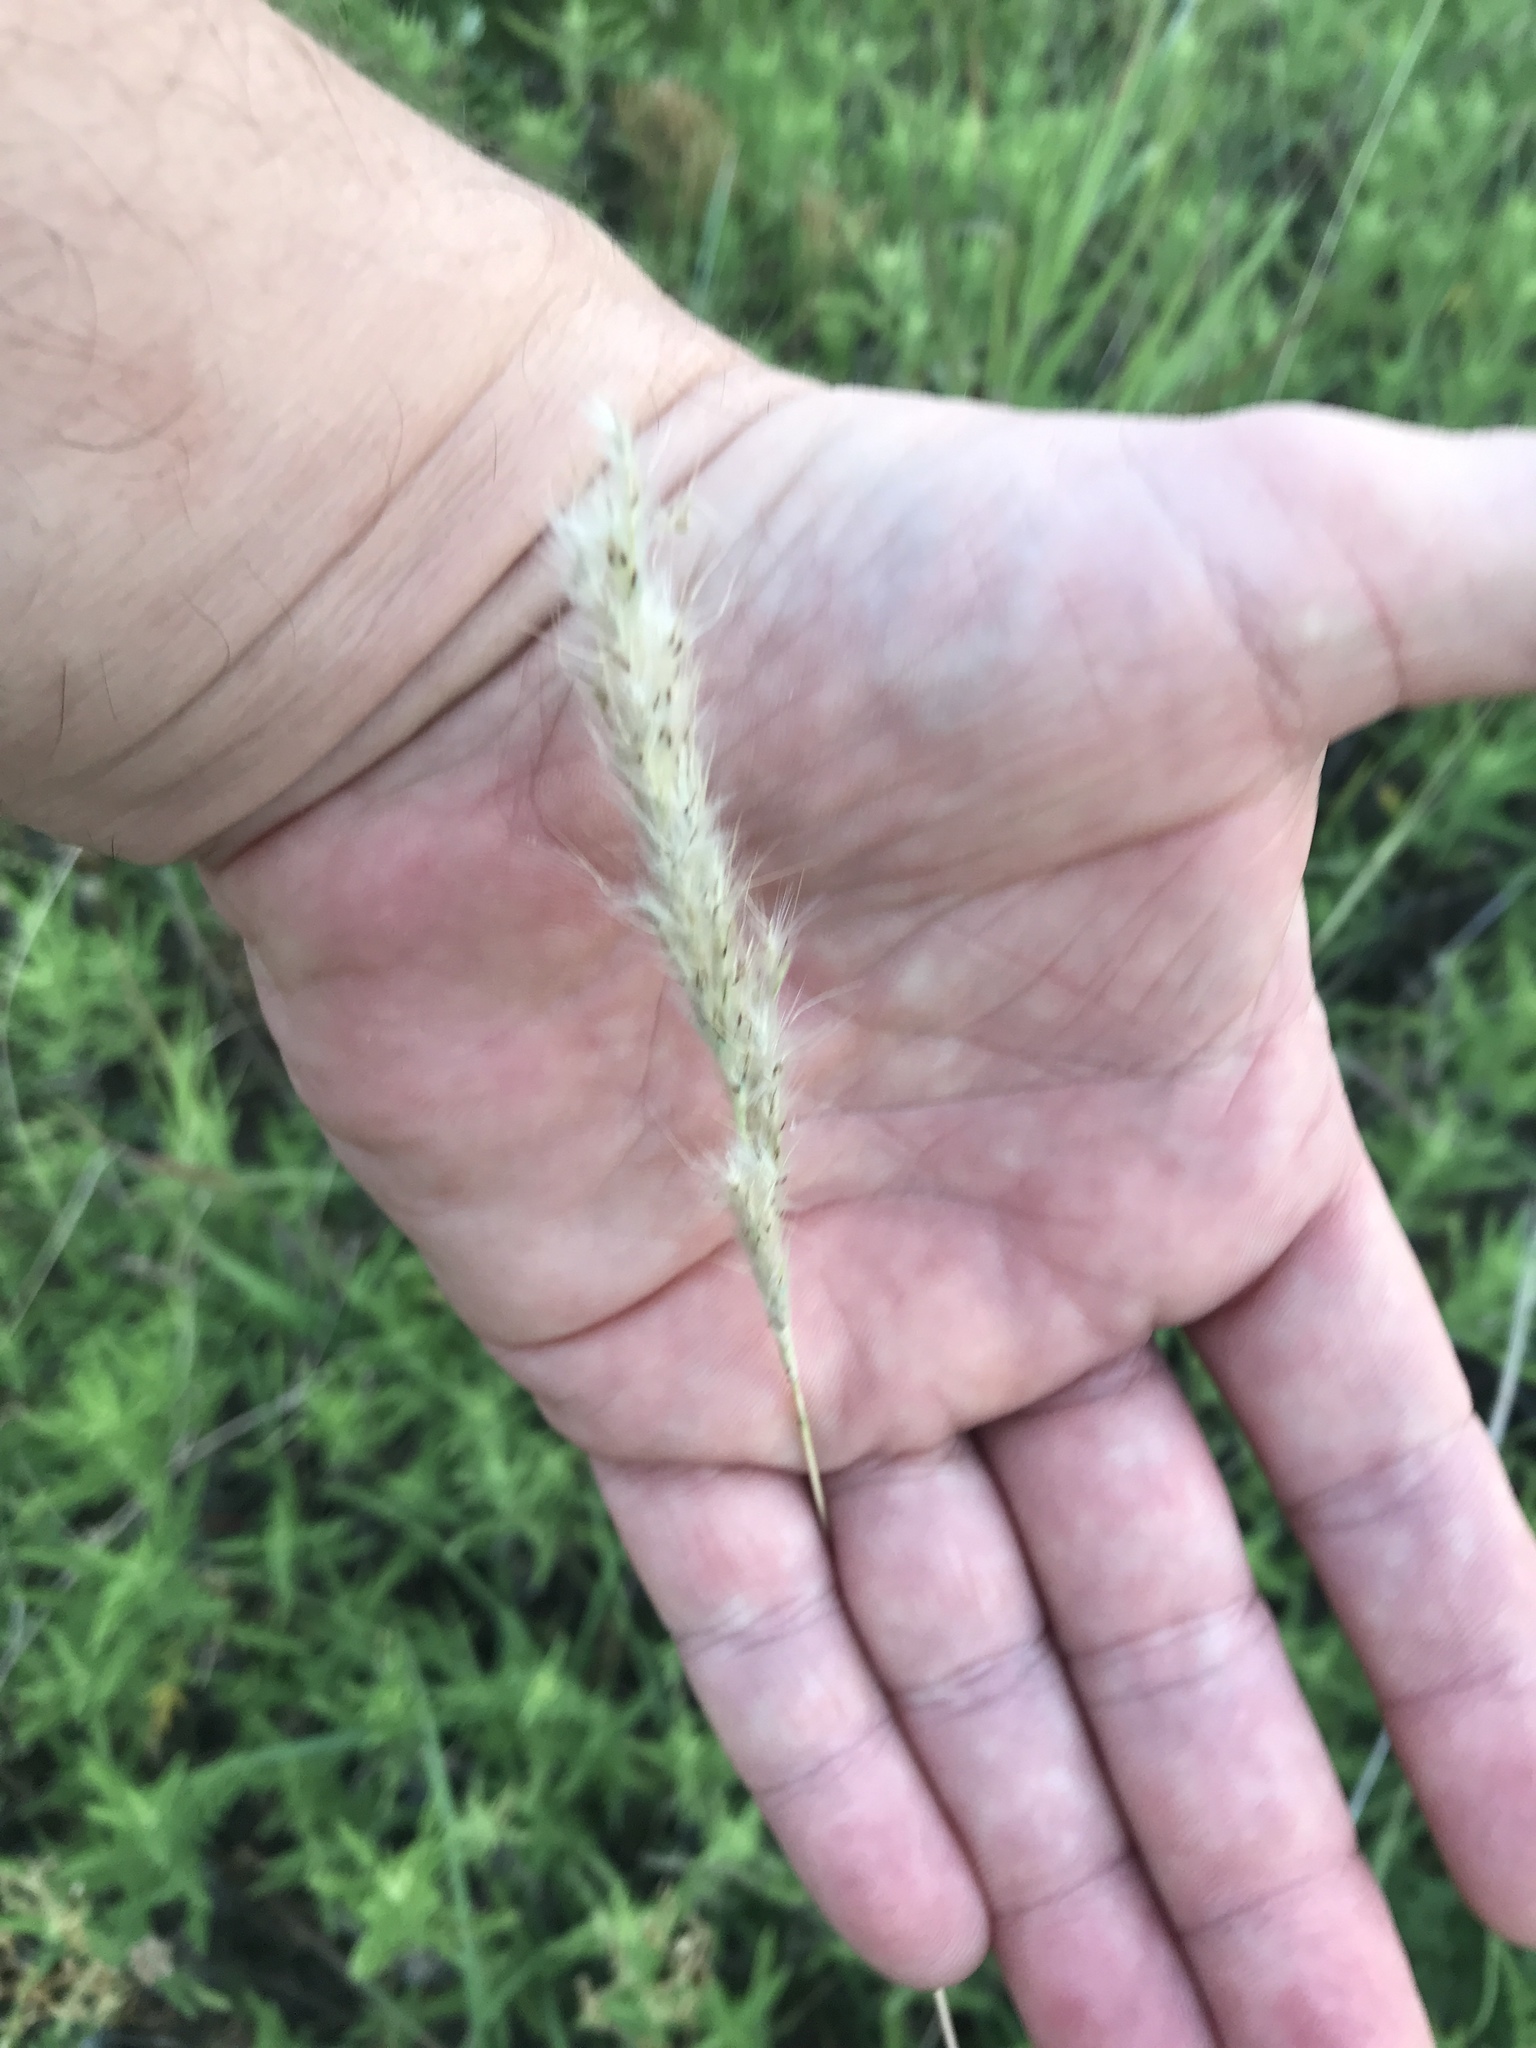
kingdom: Plantae
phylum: Tracheophyta
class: Liliopsida
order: Poales
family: Poaceae
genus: Bothriochloa
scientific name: Bothriochloa torreyana
